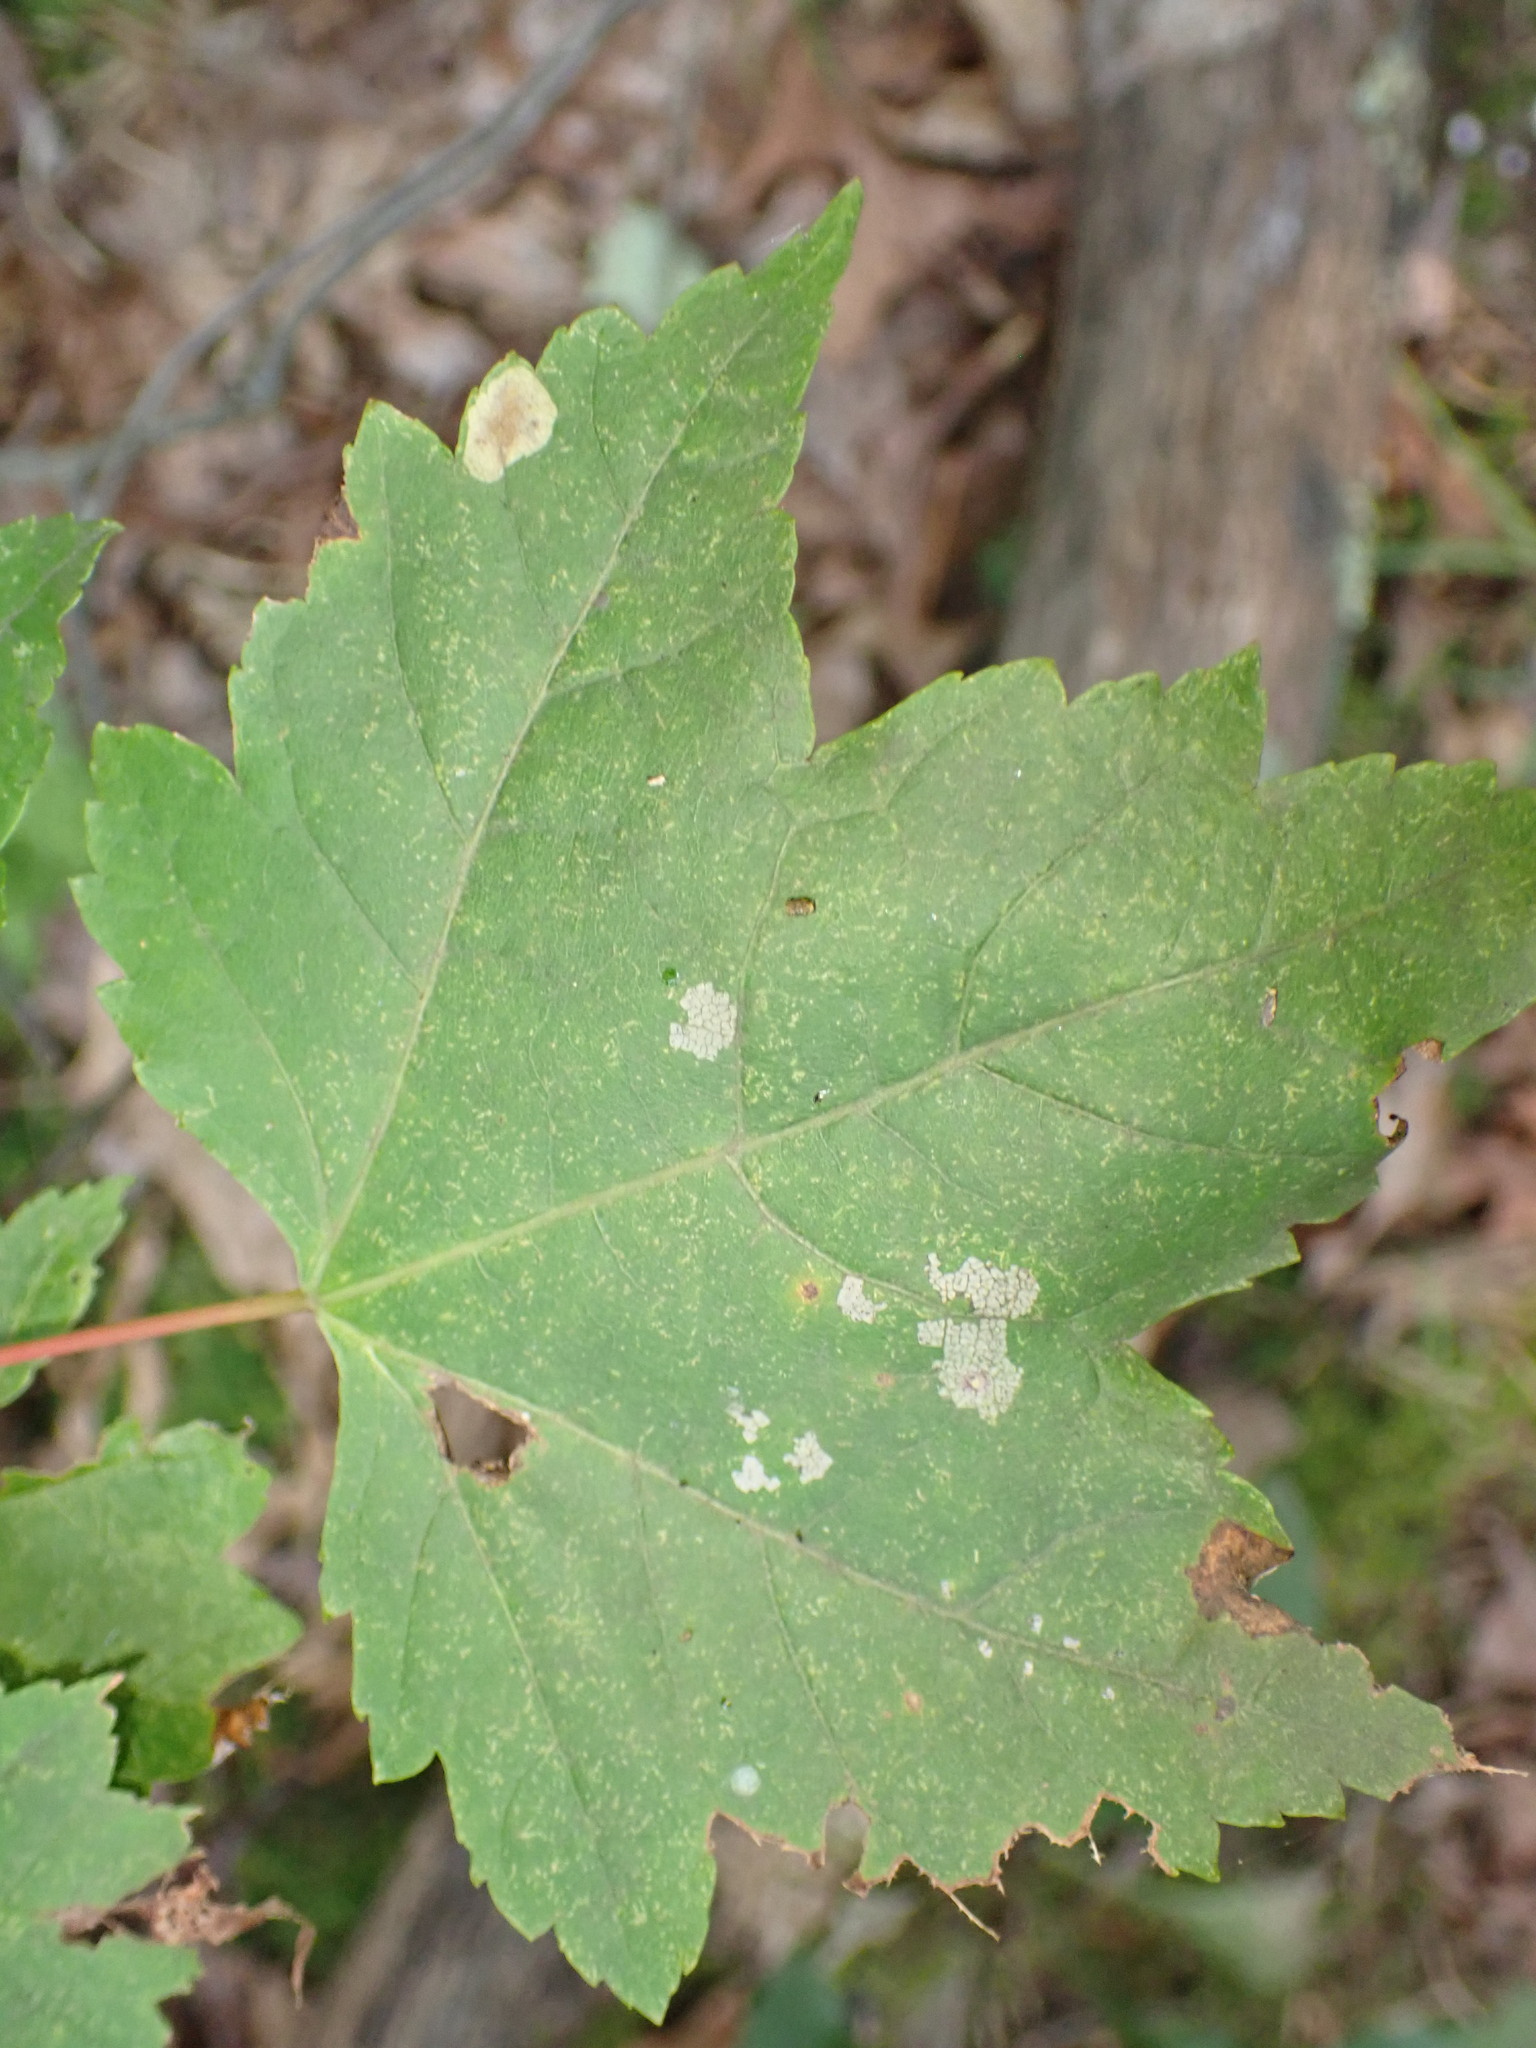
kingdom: Plantae
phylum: Tracheophyta
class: Magnoliopsida
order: Sapindales
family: Sapindaceae
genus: Acer
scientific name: Acer rubrum
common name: Red maple
